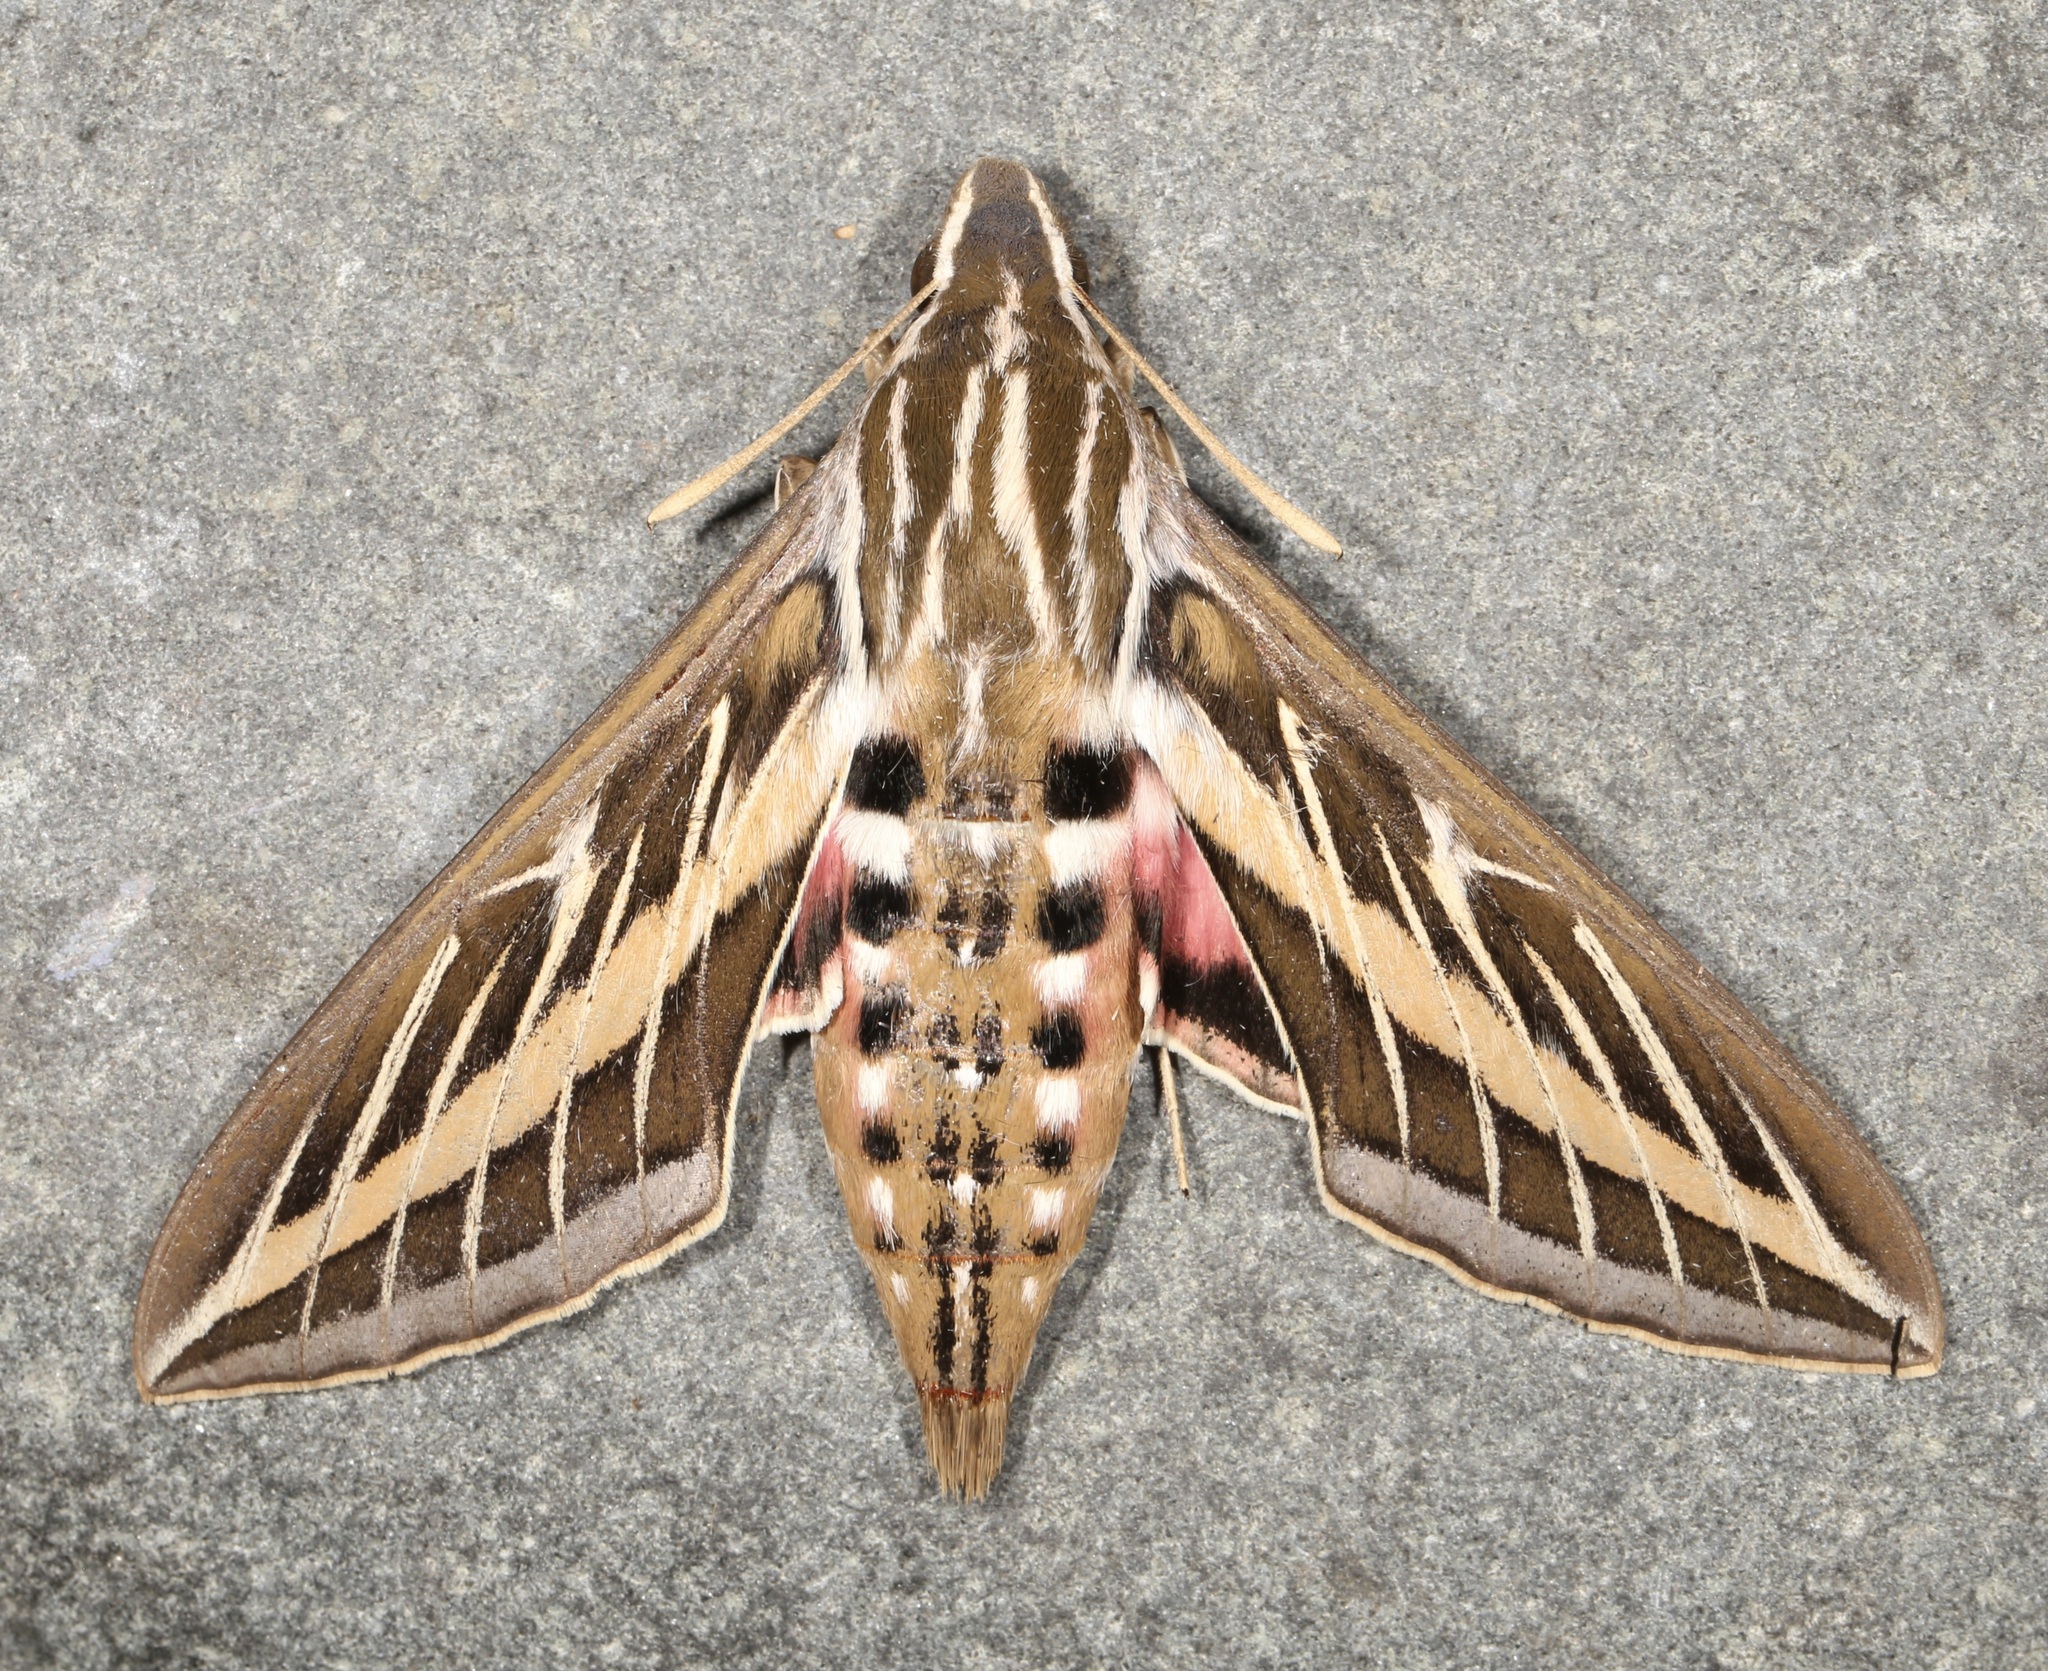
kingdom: Animalia
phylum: Arthropoda
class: Insecta
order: Lepidoptera
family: Sphingidae
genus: Hyles
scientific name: Hyles lineata
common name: White-lined sphinx
